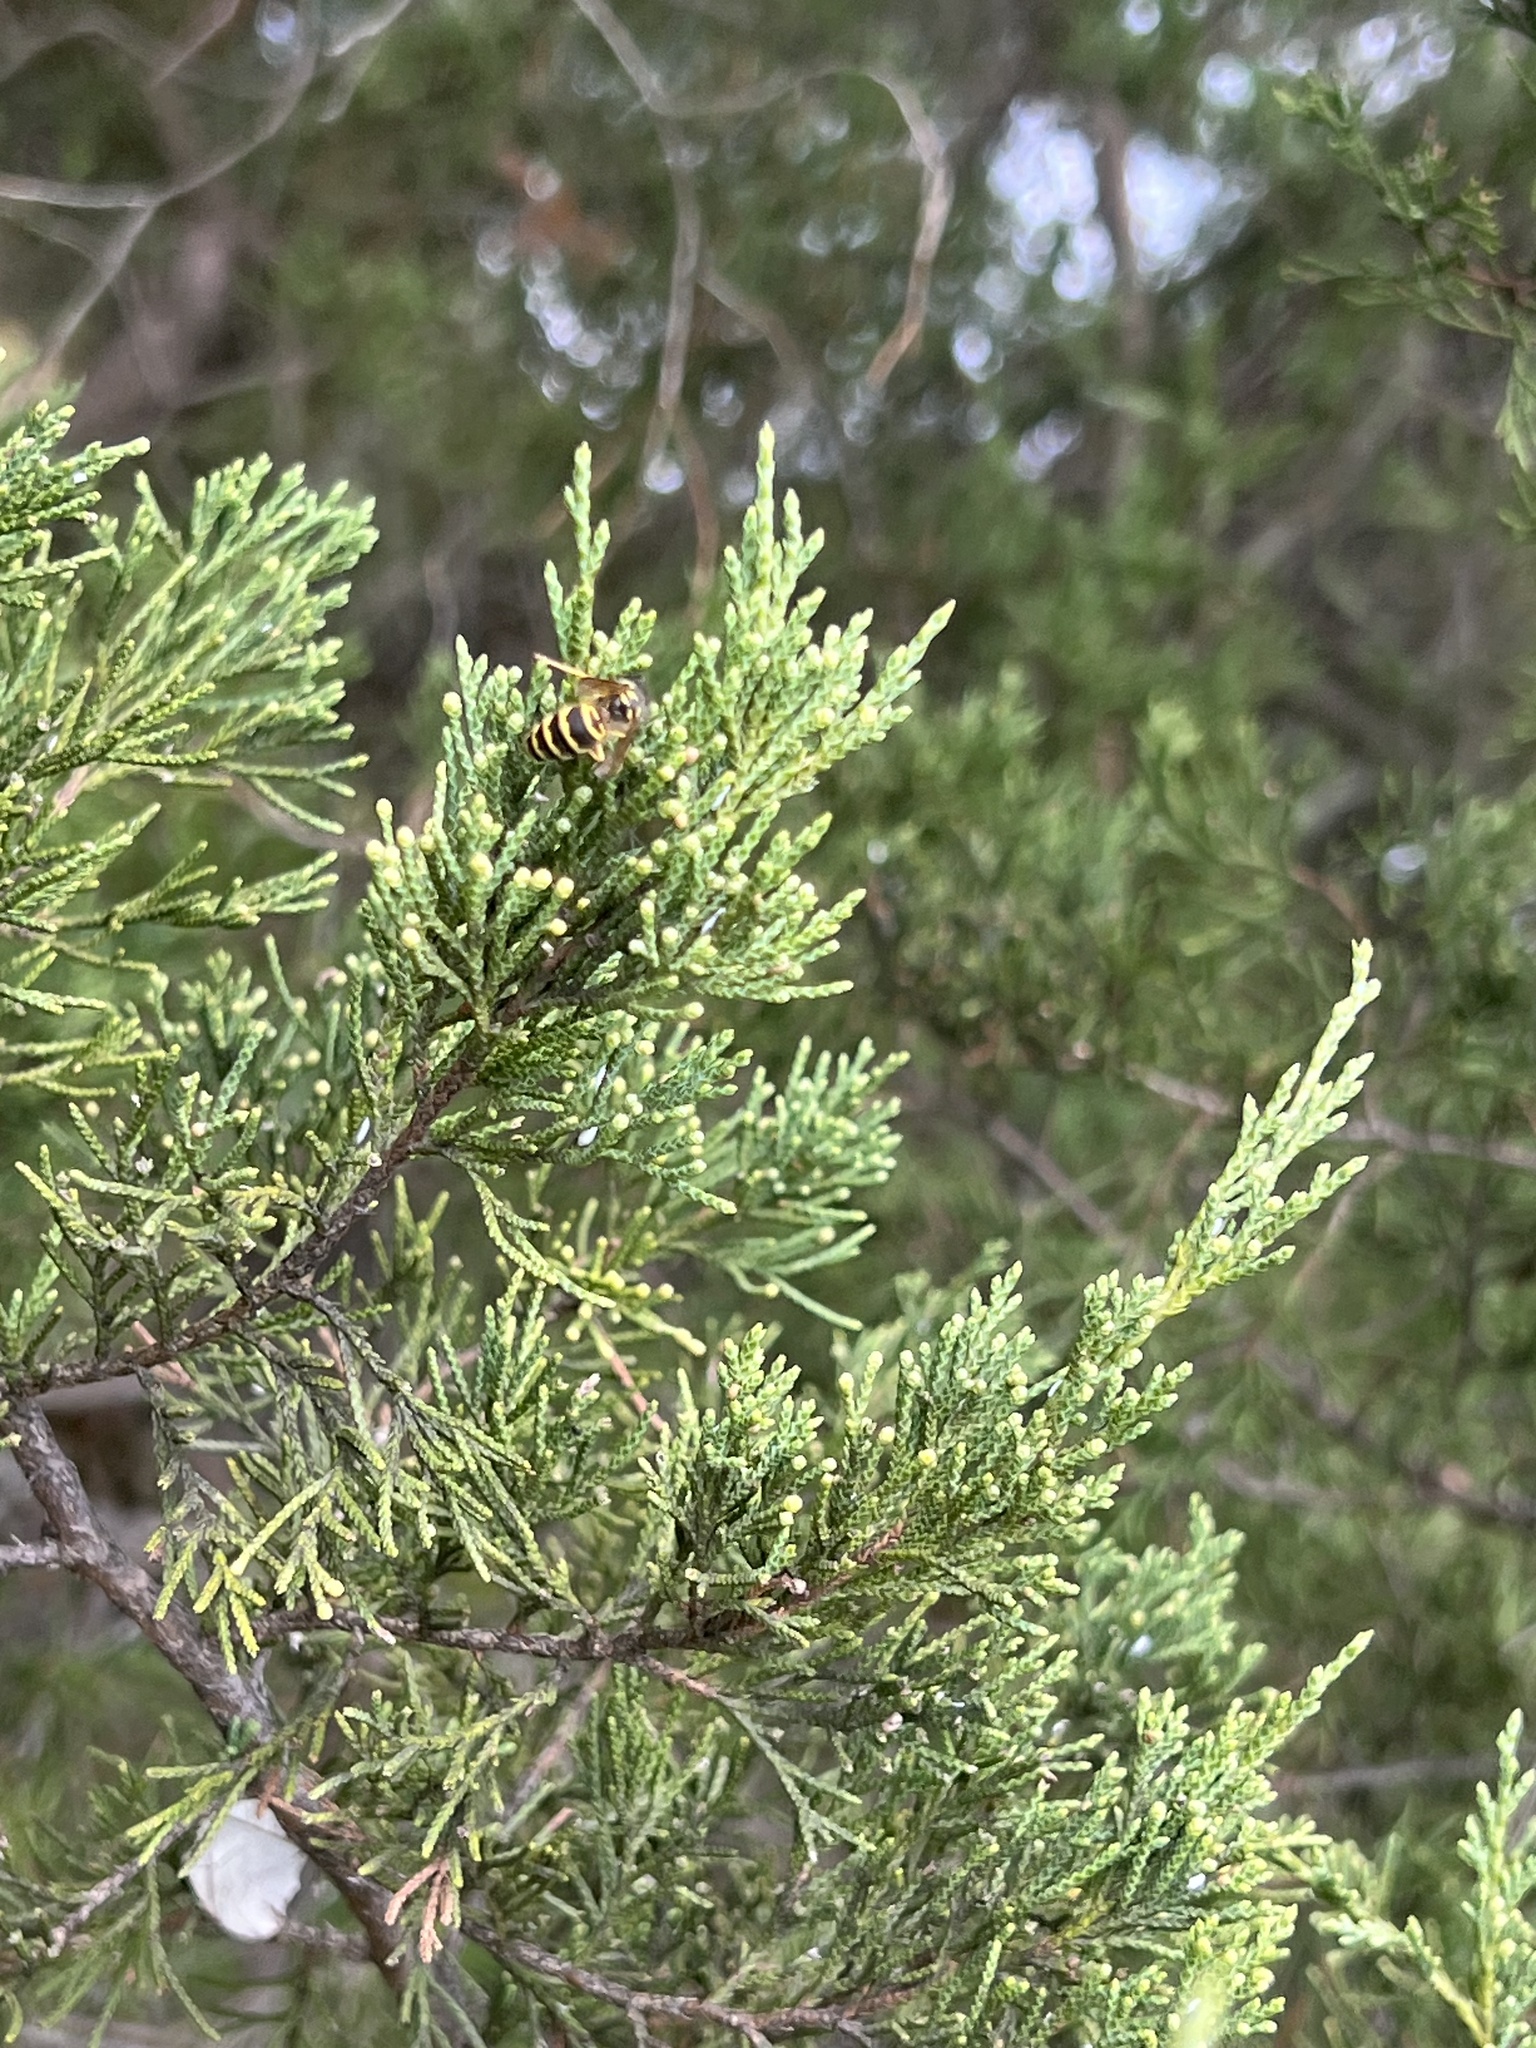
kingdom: Animalia
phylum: Arthropoda
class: Insecta
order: Hymenoptera
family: Vespidae
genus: Vespula
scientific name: Vespula maculifrons
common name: Eastern yellowjacket
